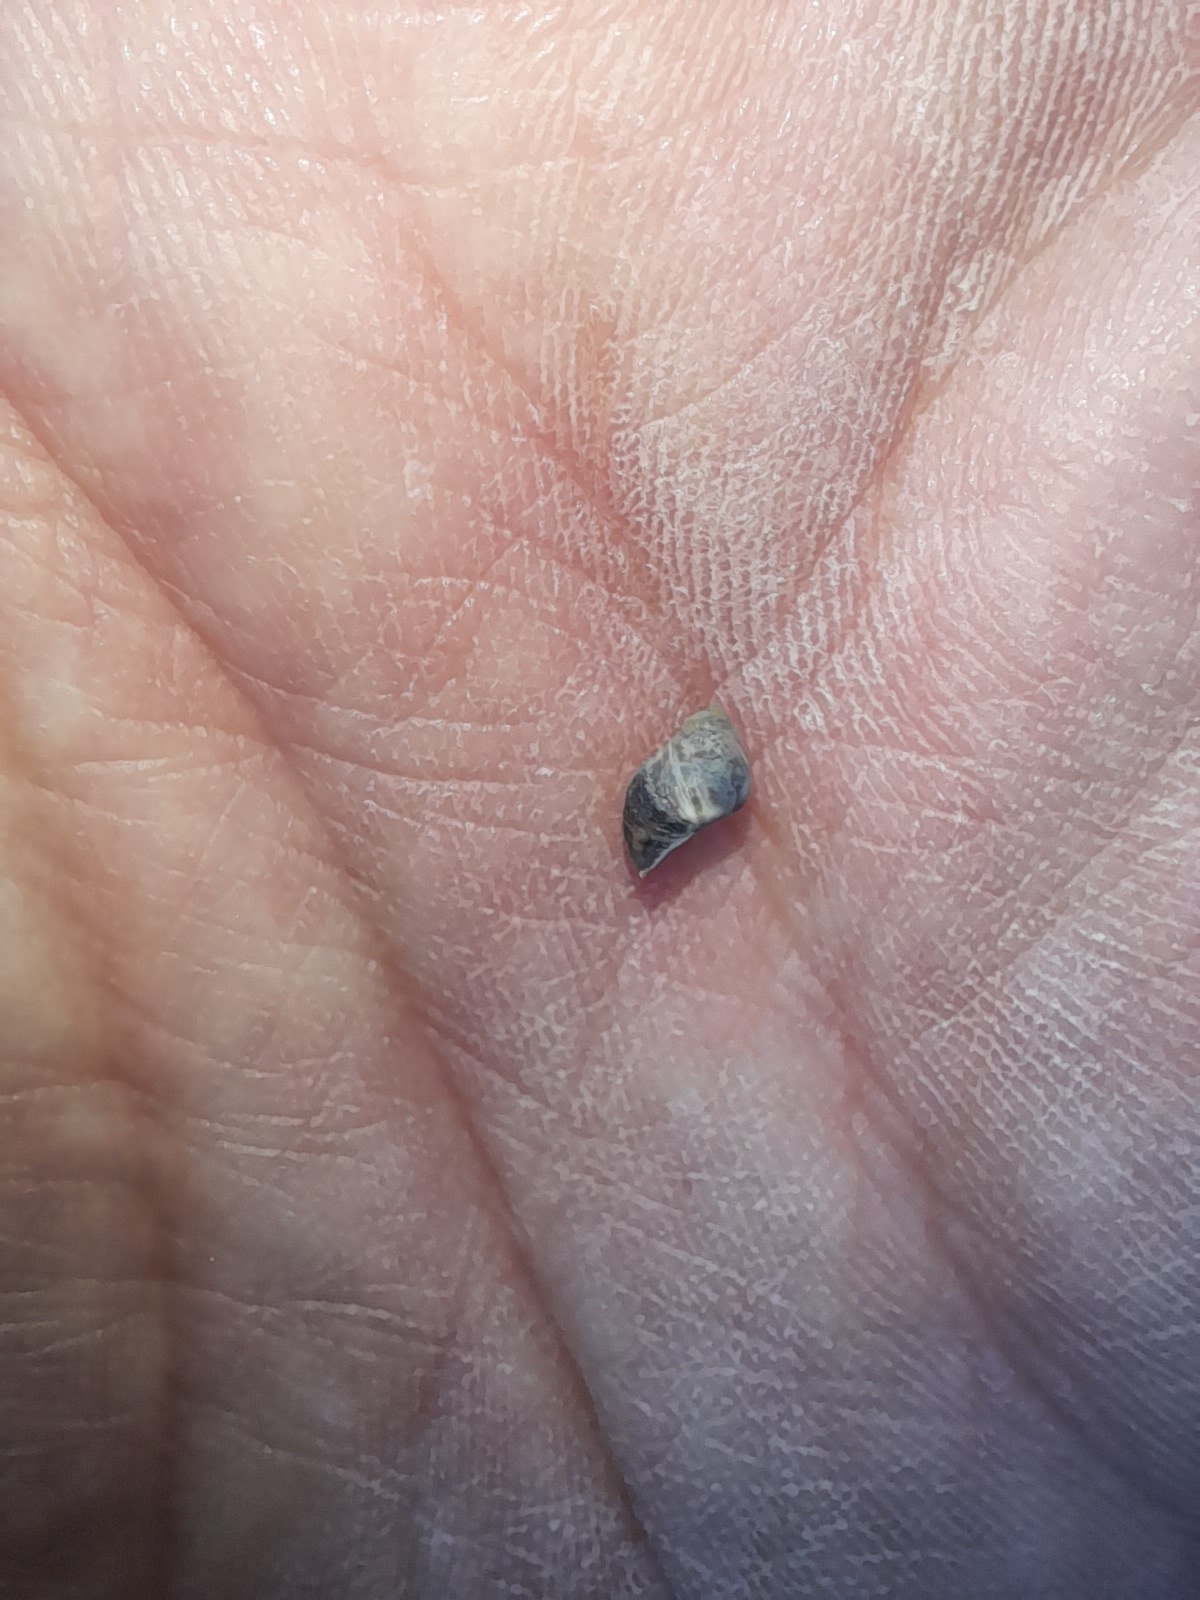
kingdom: Animalia
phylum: Mollusca
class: Gastropoda
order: Littorinimorpha
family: Littorinidae
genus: Echinolittorina
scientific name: Echinolittorina punctata
